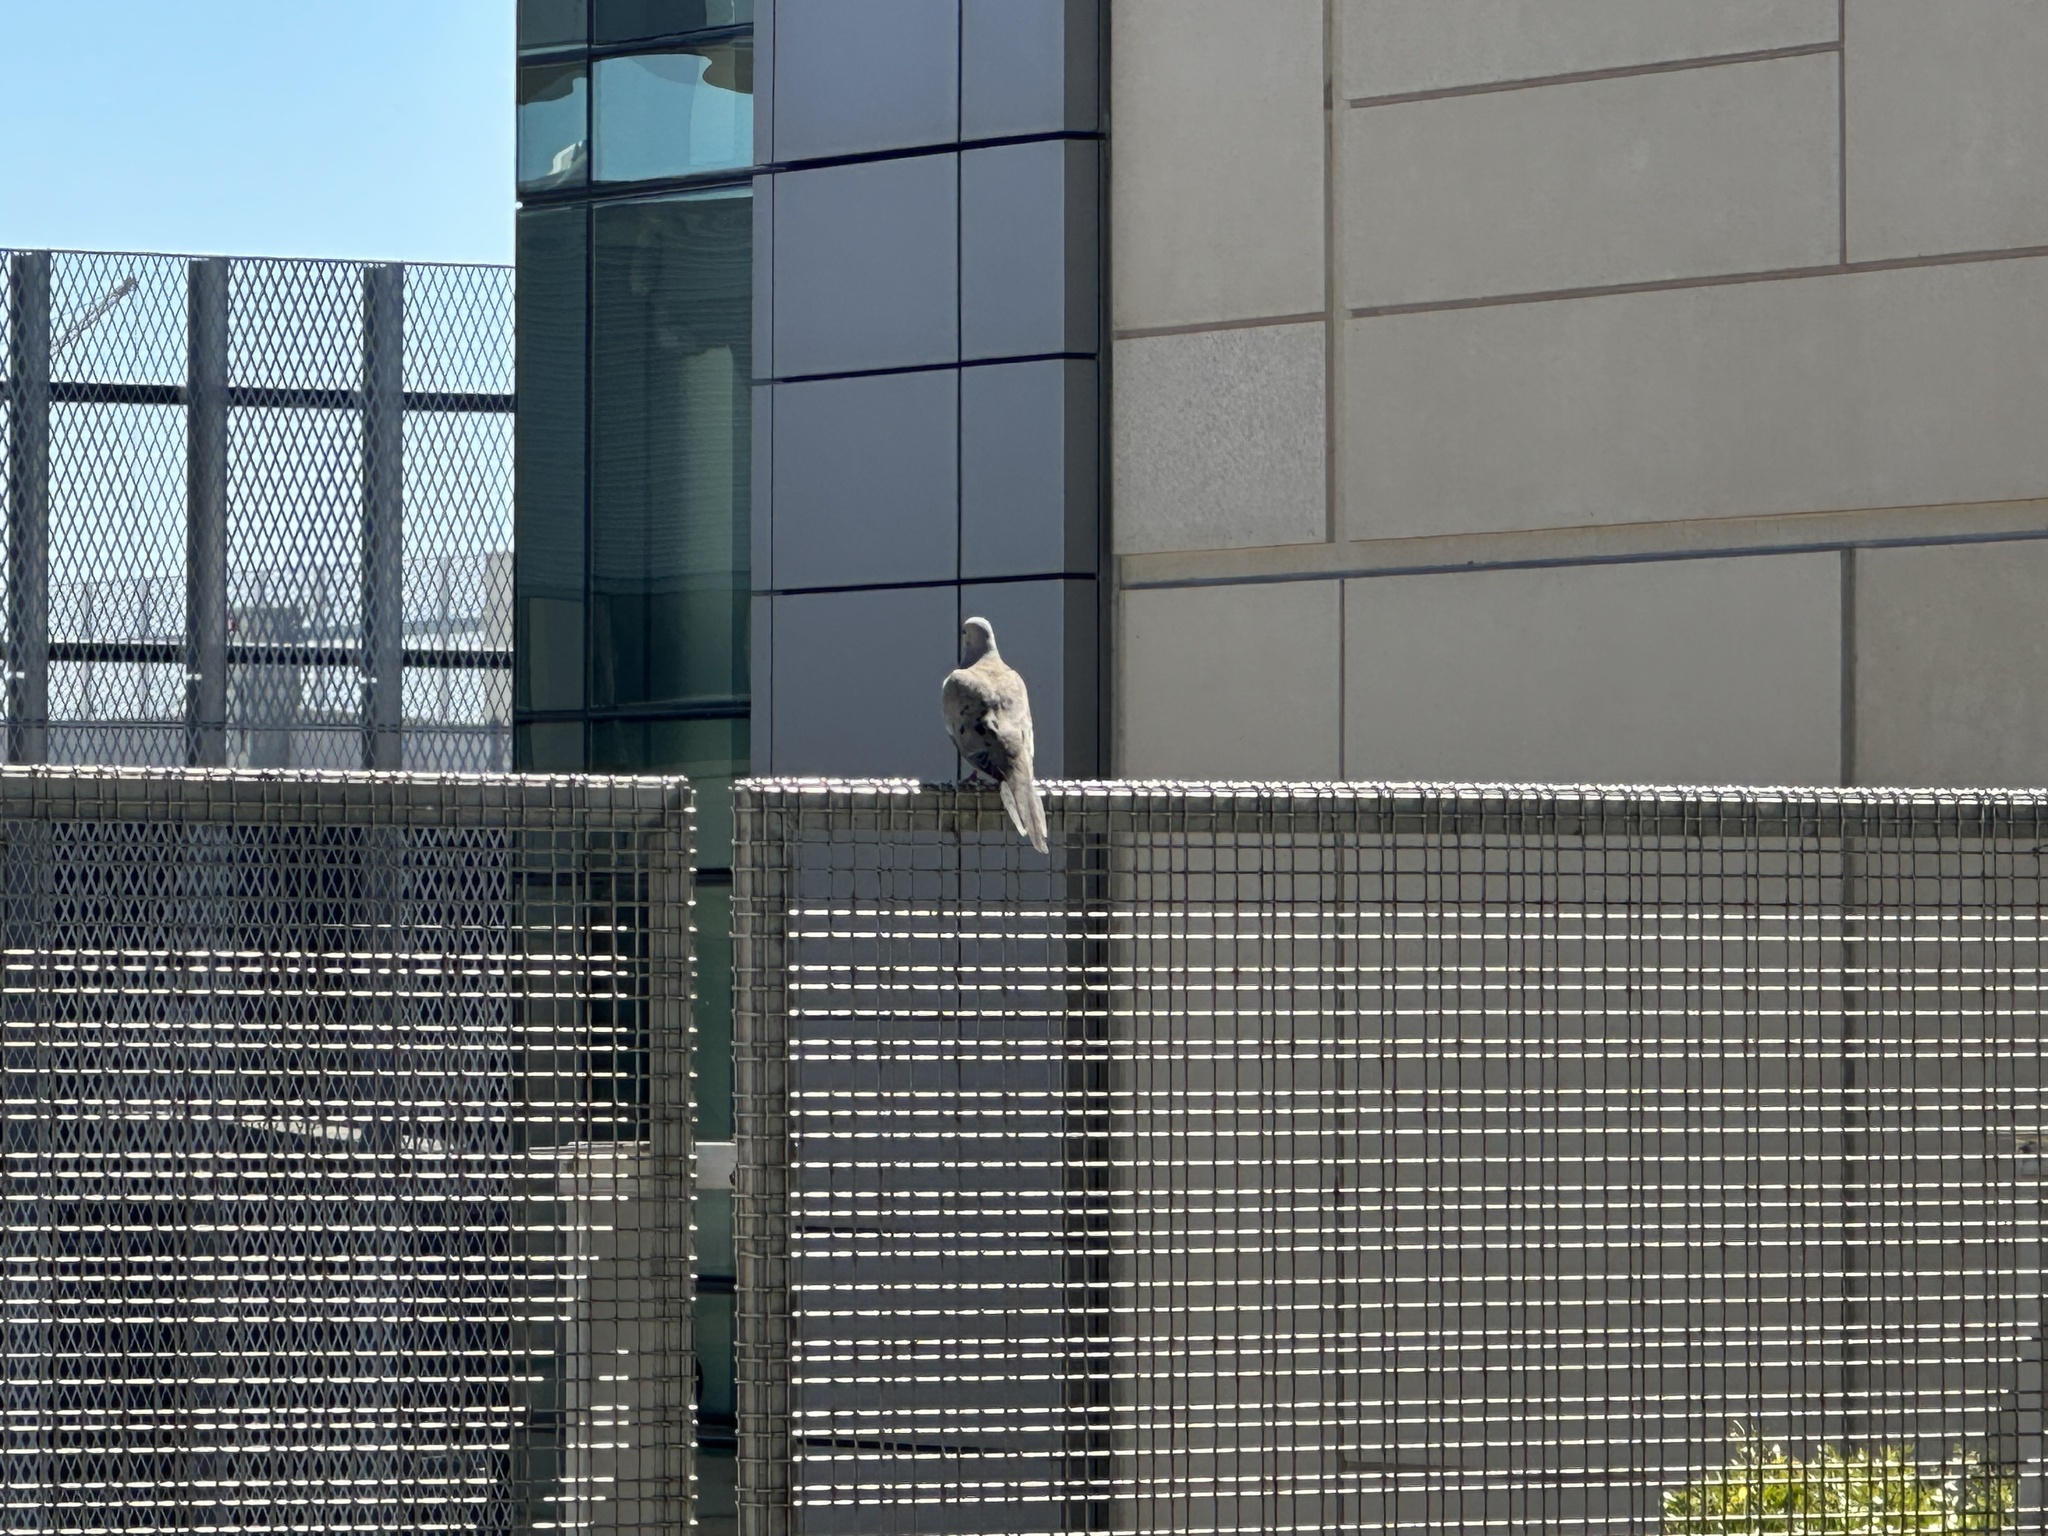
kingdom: Animalia
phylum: Chordata
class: Aves
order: Columbiformes
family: Columbidae
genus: Zenaida
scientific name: Zenaida macroura
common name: Mourning dove
